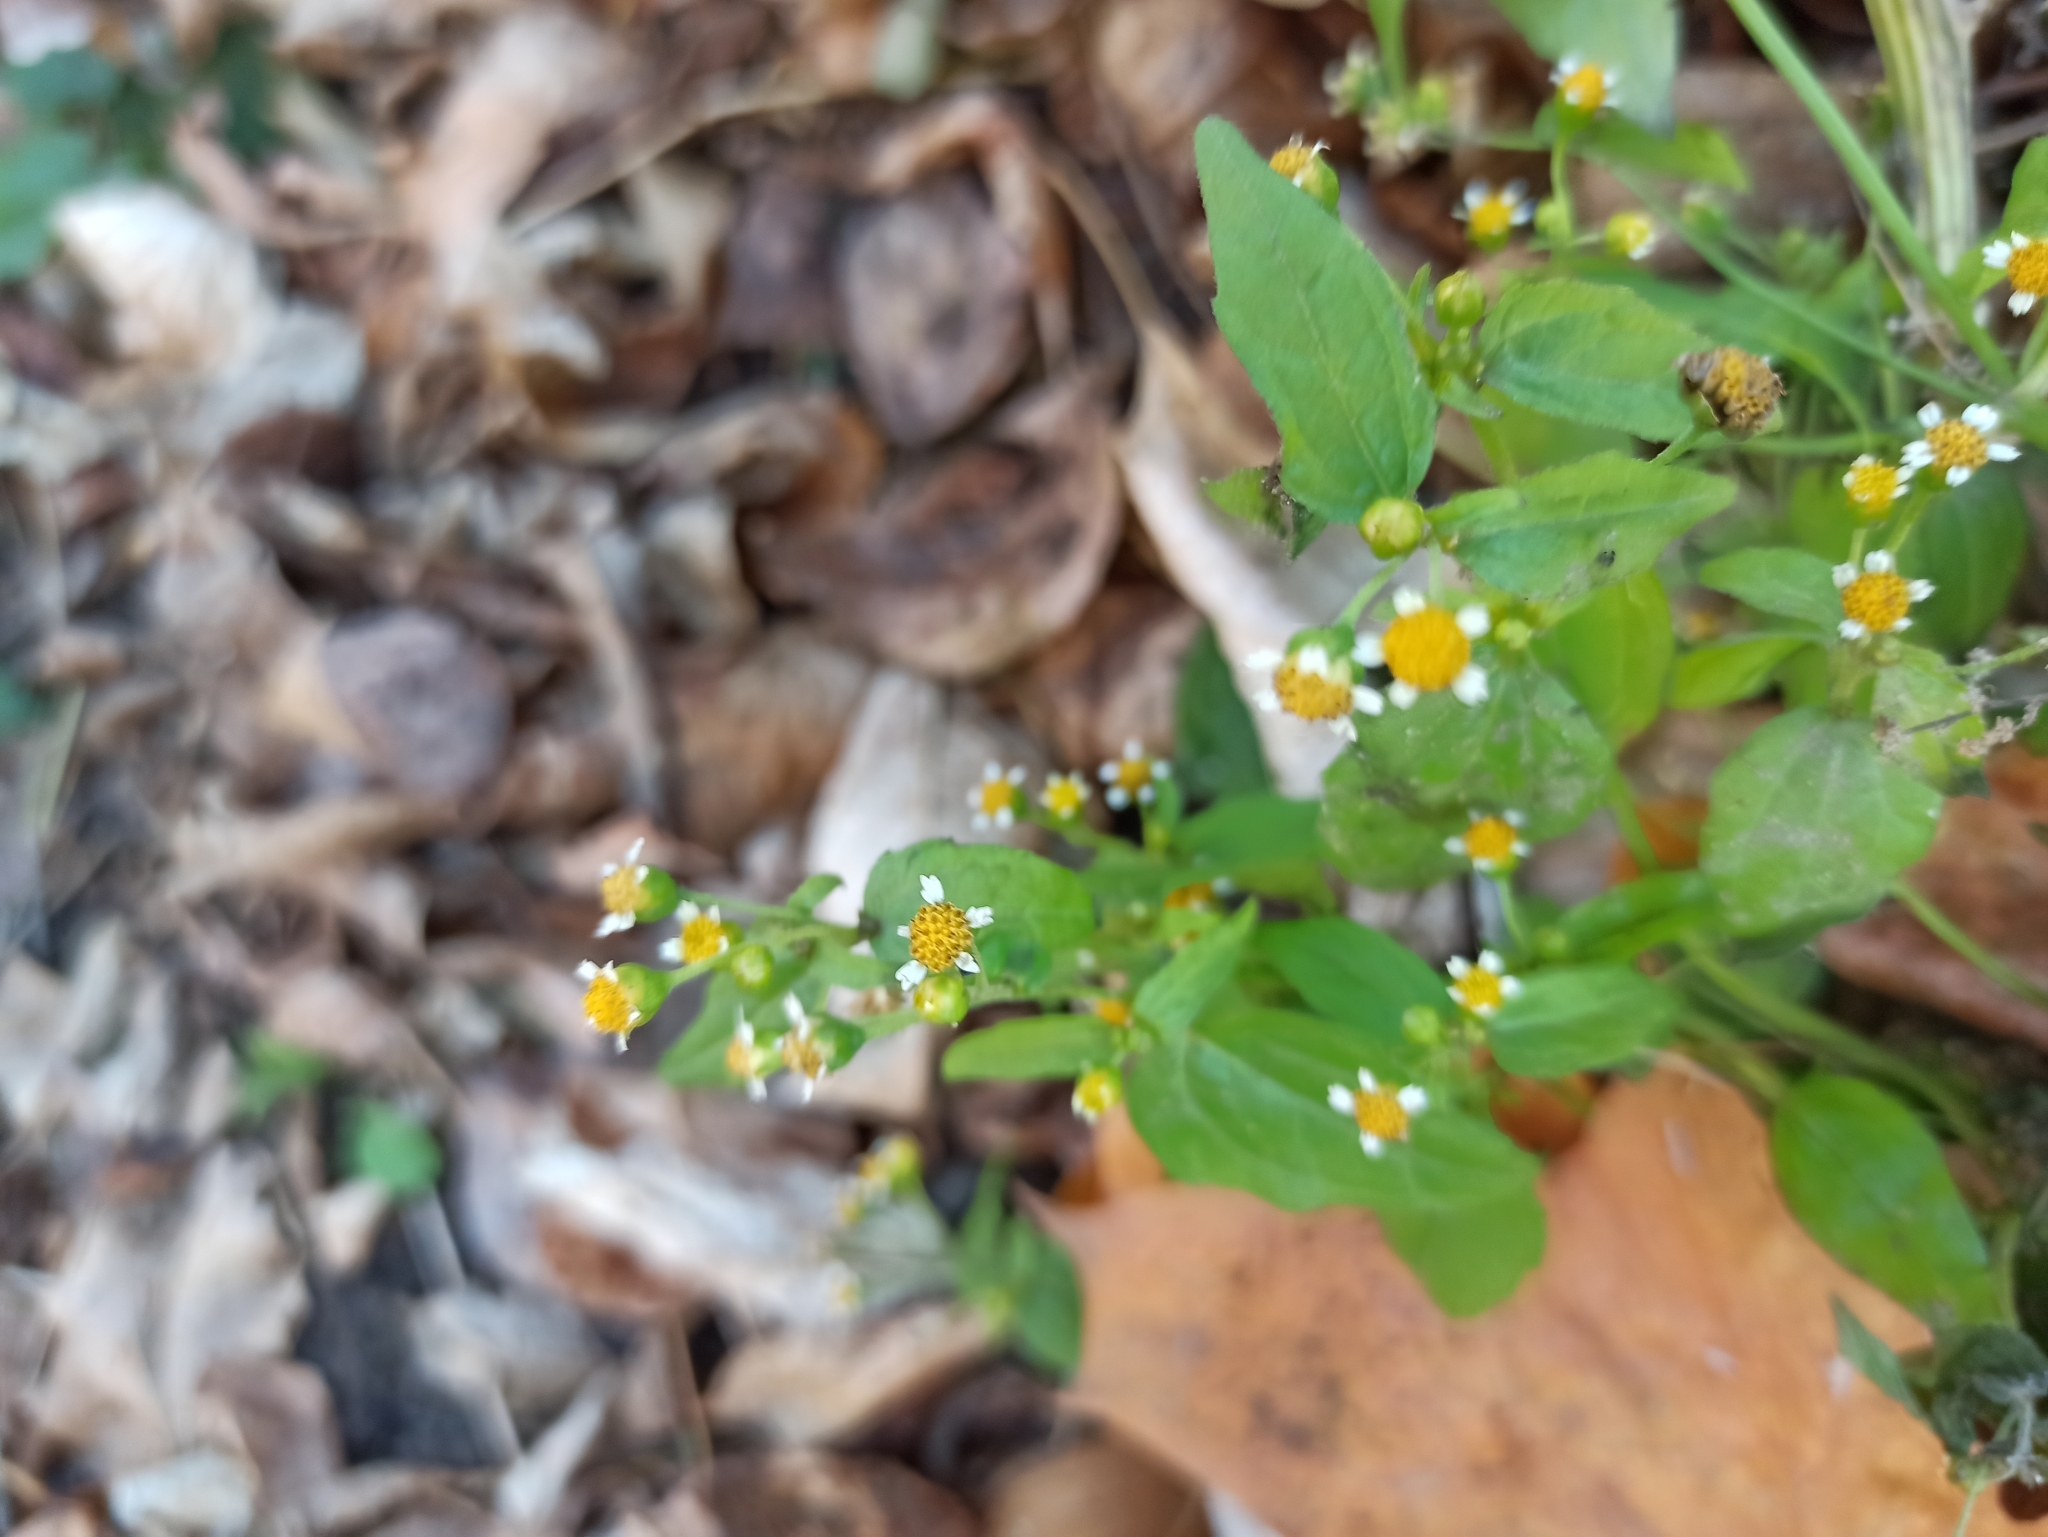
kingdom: Plantae
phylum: Tracheophyta
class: Magnoliopsida
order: Asterales
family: Asteraceae
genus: Galinsoga
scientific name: Galinsoga parviflora
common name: Gallant soldier
